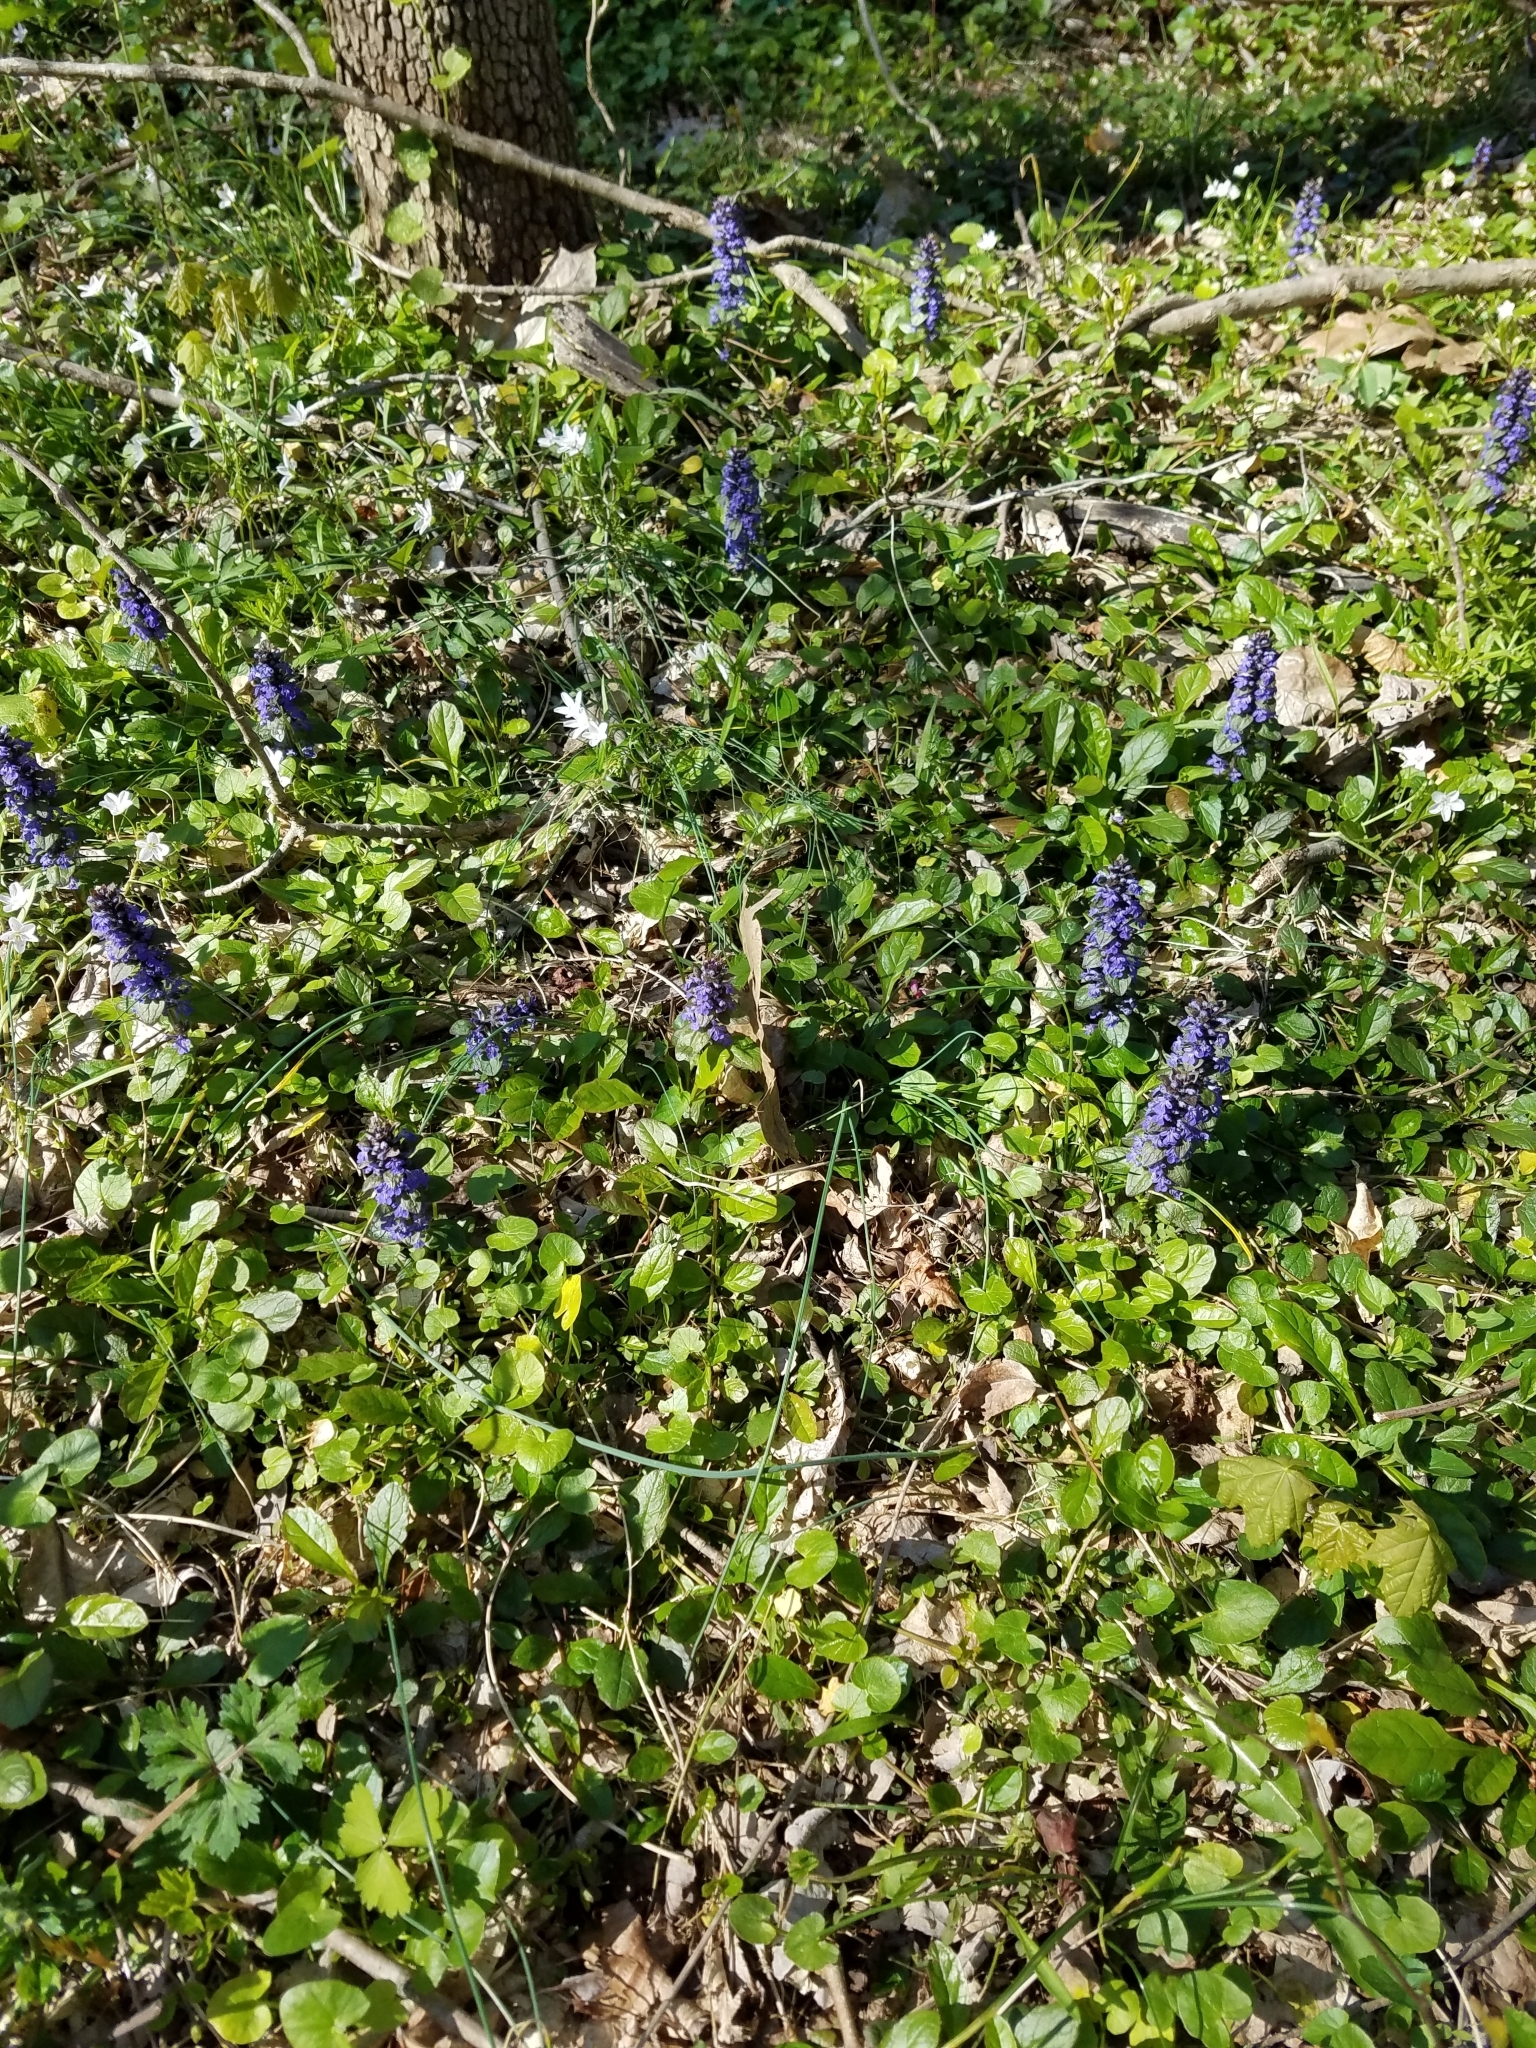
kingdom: Plantae
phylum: Tracheophyta
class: Magnoliopsida
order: Lamiales
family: Lamiaceae
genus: Ajuga
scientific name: Ajuga reptans
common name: Bugle
